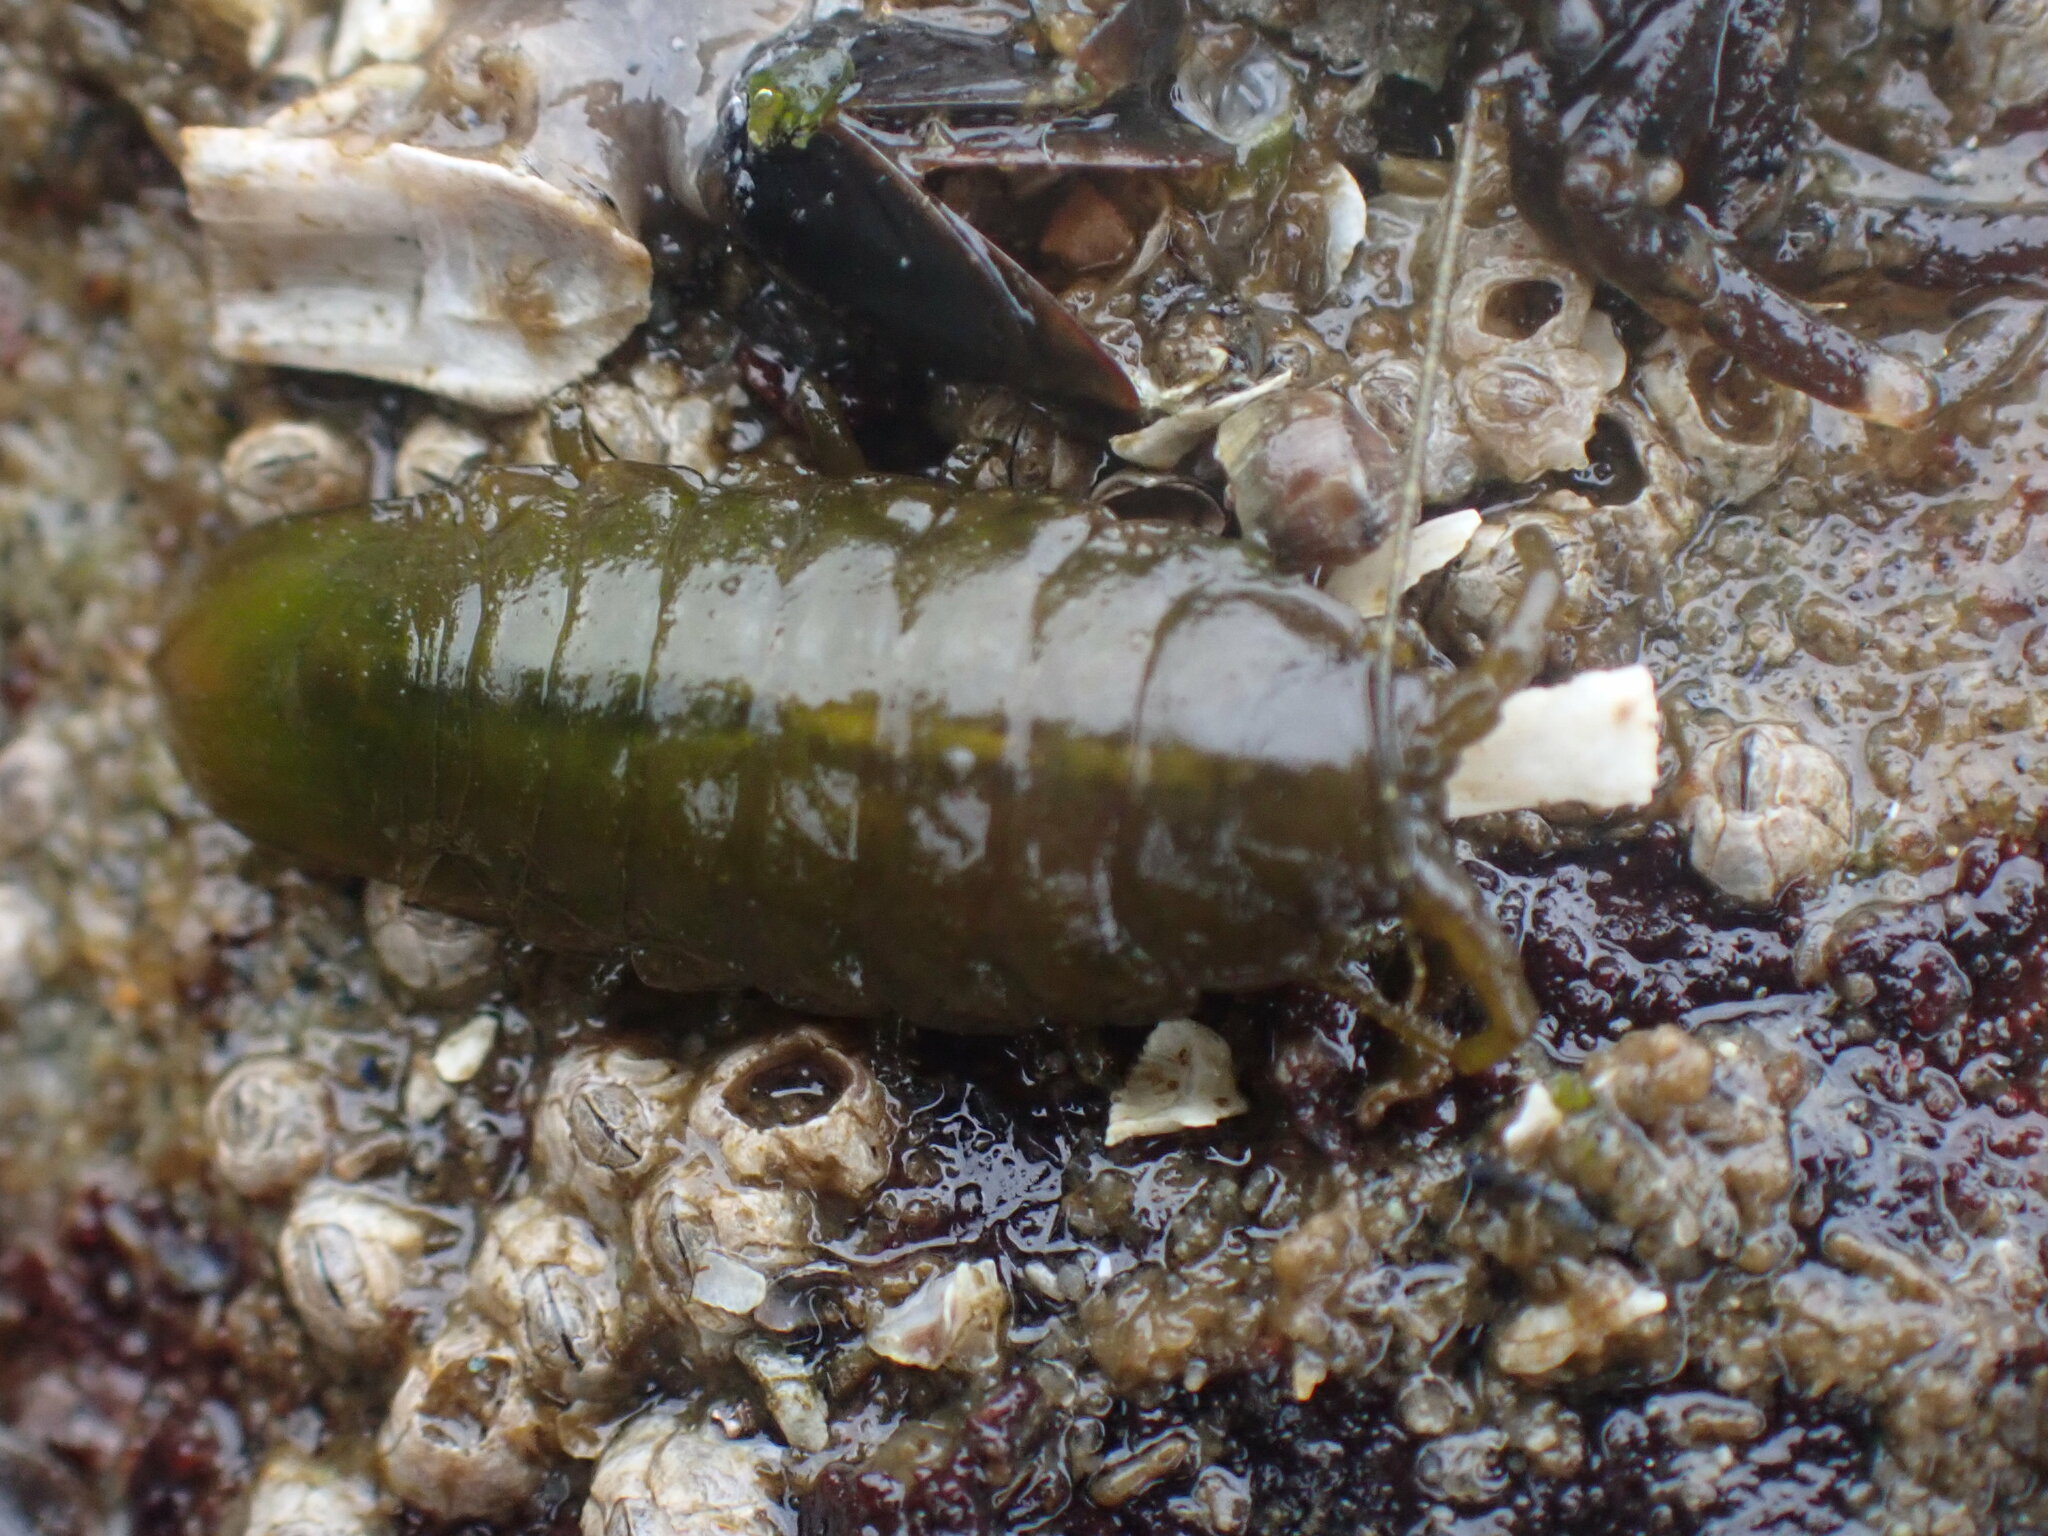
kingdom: Animalia
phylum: Arthropoda
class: Malacostraca
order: Isopoda
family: Idoteidae
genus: Pentidotea
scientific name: Pentidotea wosnesenskii
